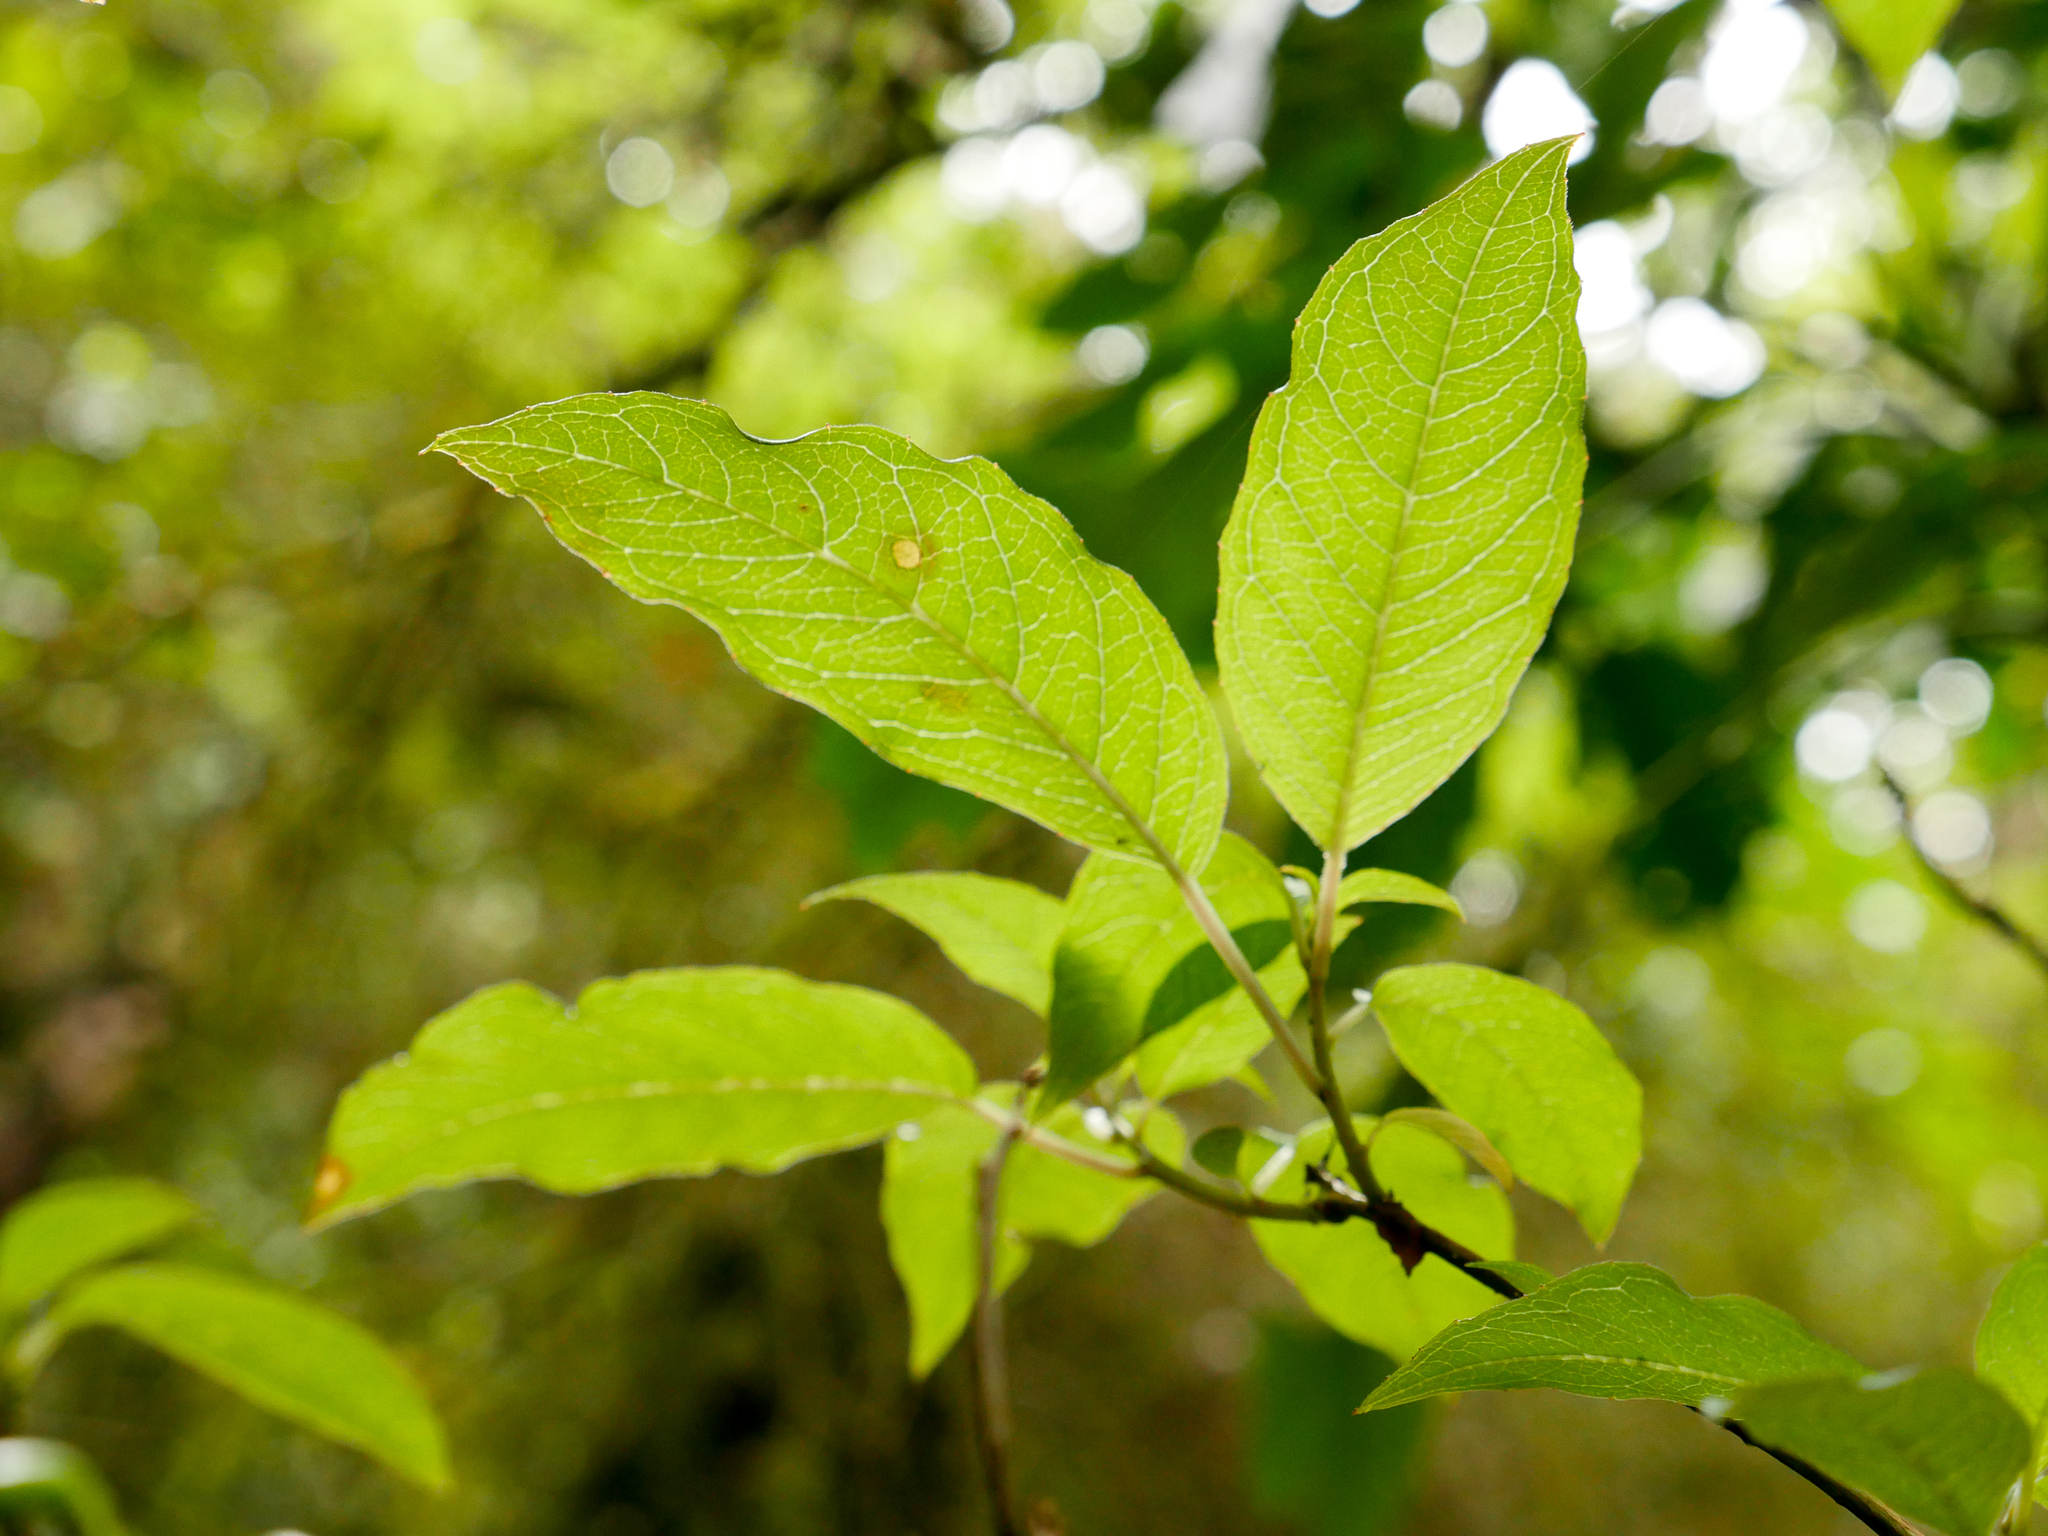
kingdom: Plantae
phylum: Tracheophyta
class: Magnoliopsida
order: Myrtales
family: Onagraceae
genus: Fuchsia
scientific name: Fuchsia excorticata
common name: Tree fuchsia
